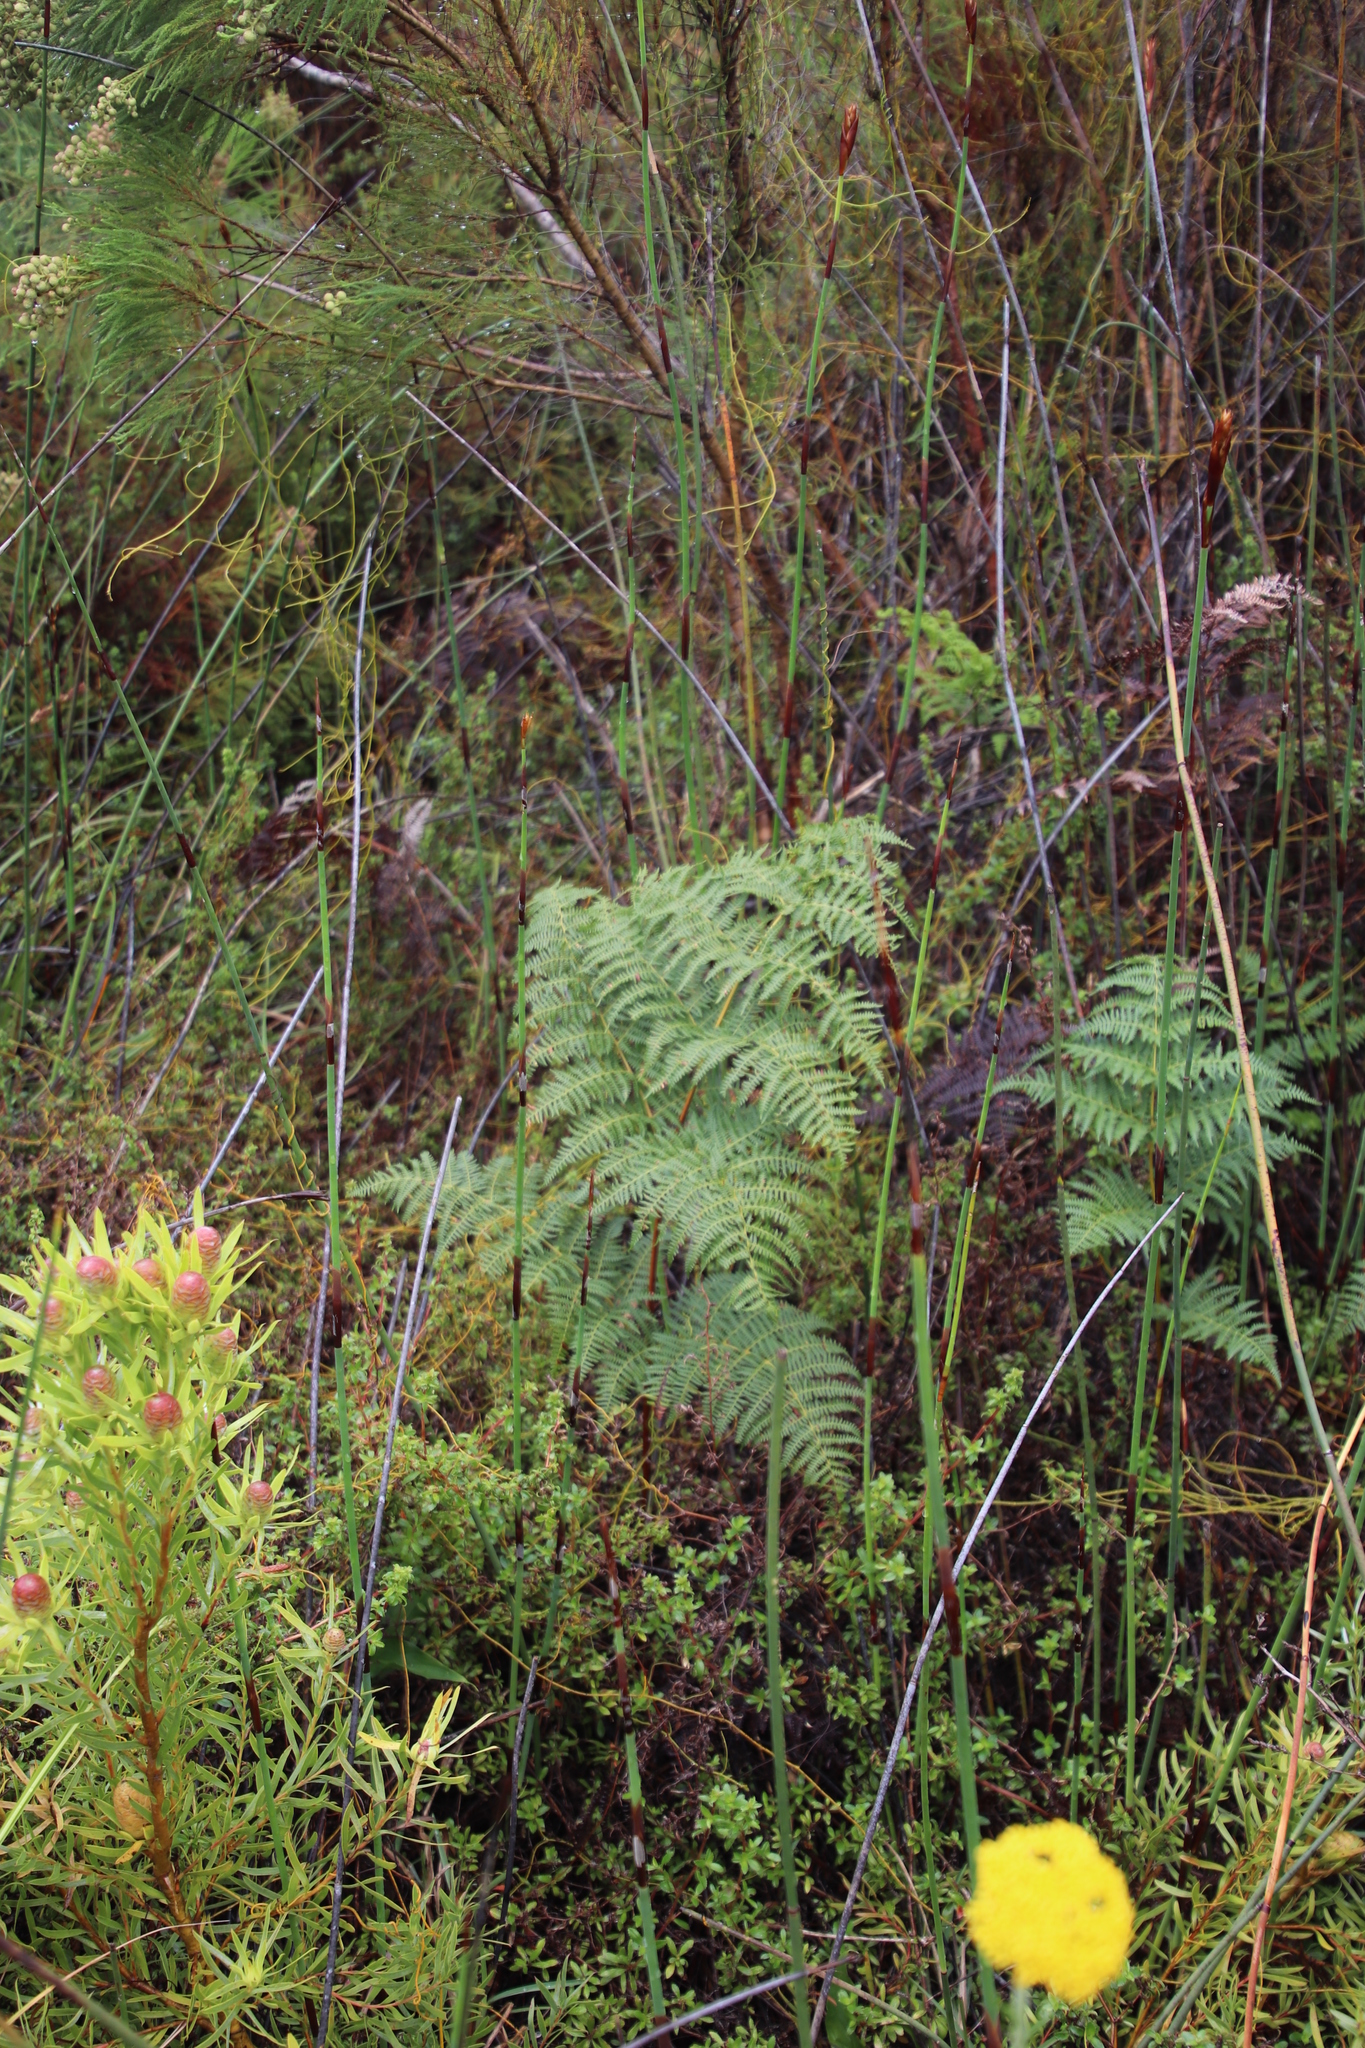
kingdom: Plantae
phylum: Tracheophyta
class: Polypodiopsida
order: Polypodiales
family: Dennstaedtiaceae
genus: Pteridium
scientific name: Pteridium aquilinum
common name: Bracken
